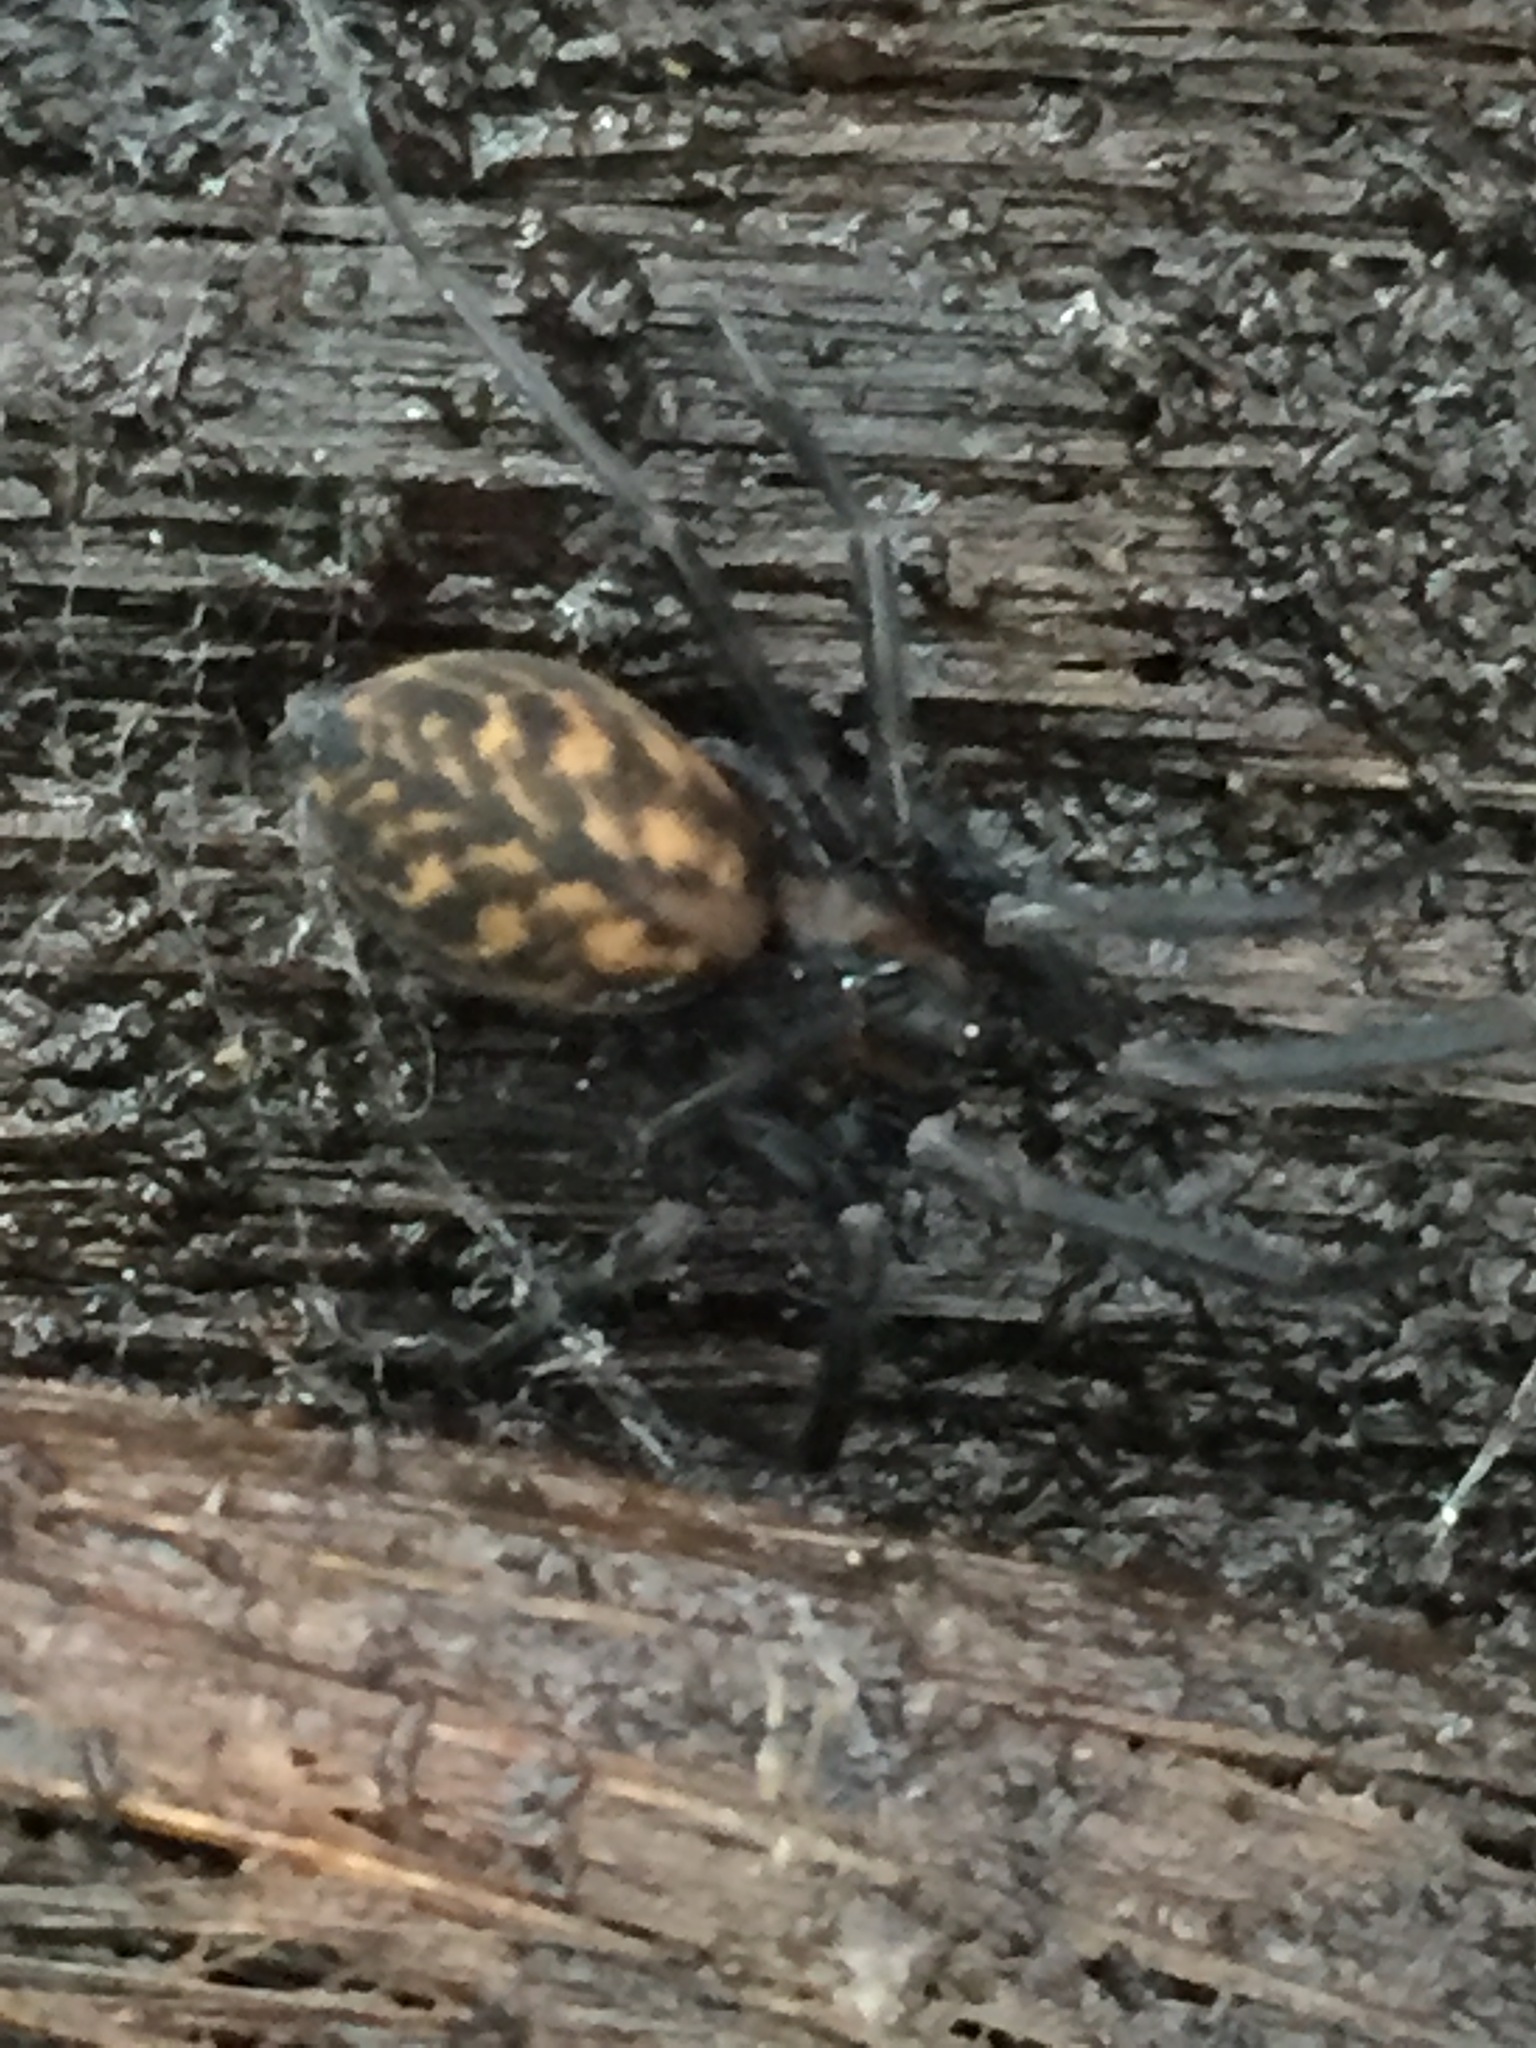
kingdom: Animalia
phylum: Arthropoda
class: Arachnida
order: Araneae
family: Desidae
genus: Cambridgea
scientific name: Cambridgea plagiata
